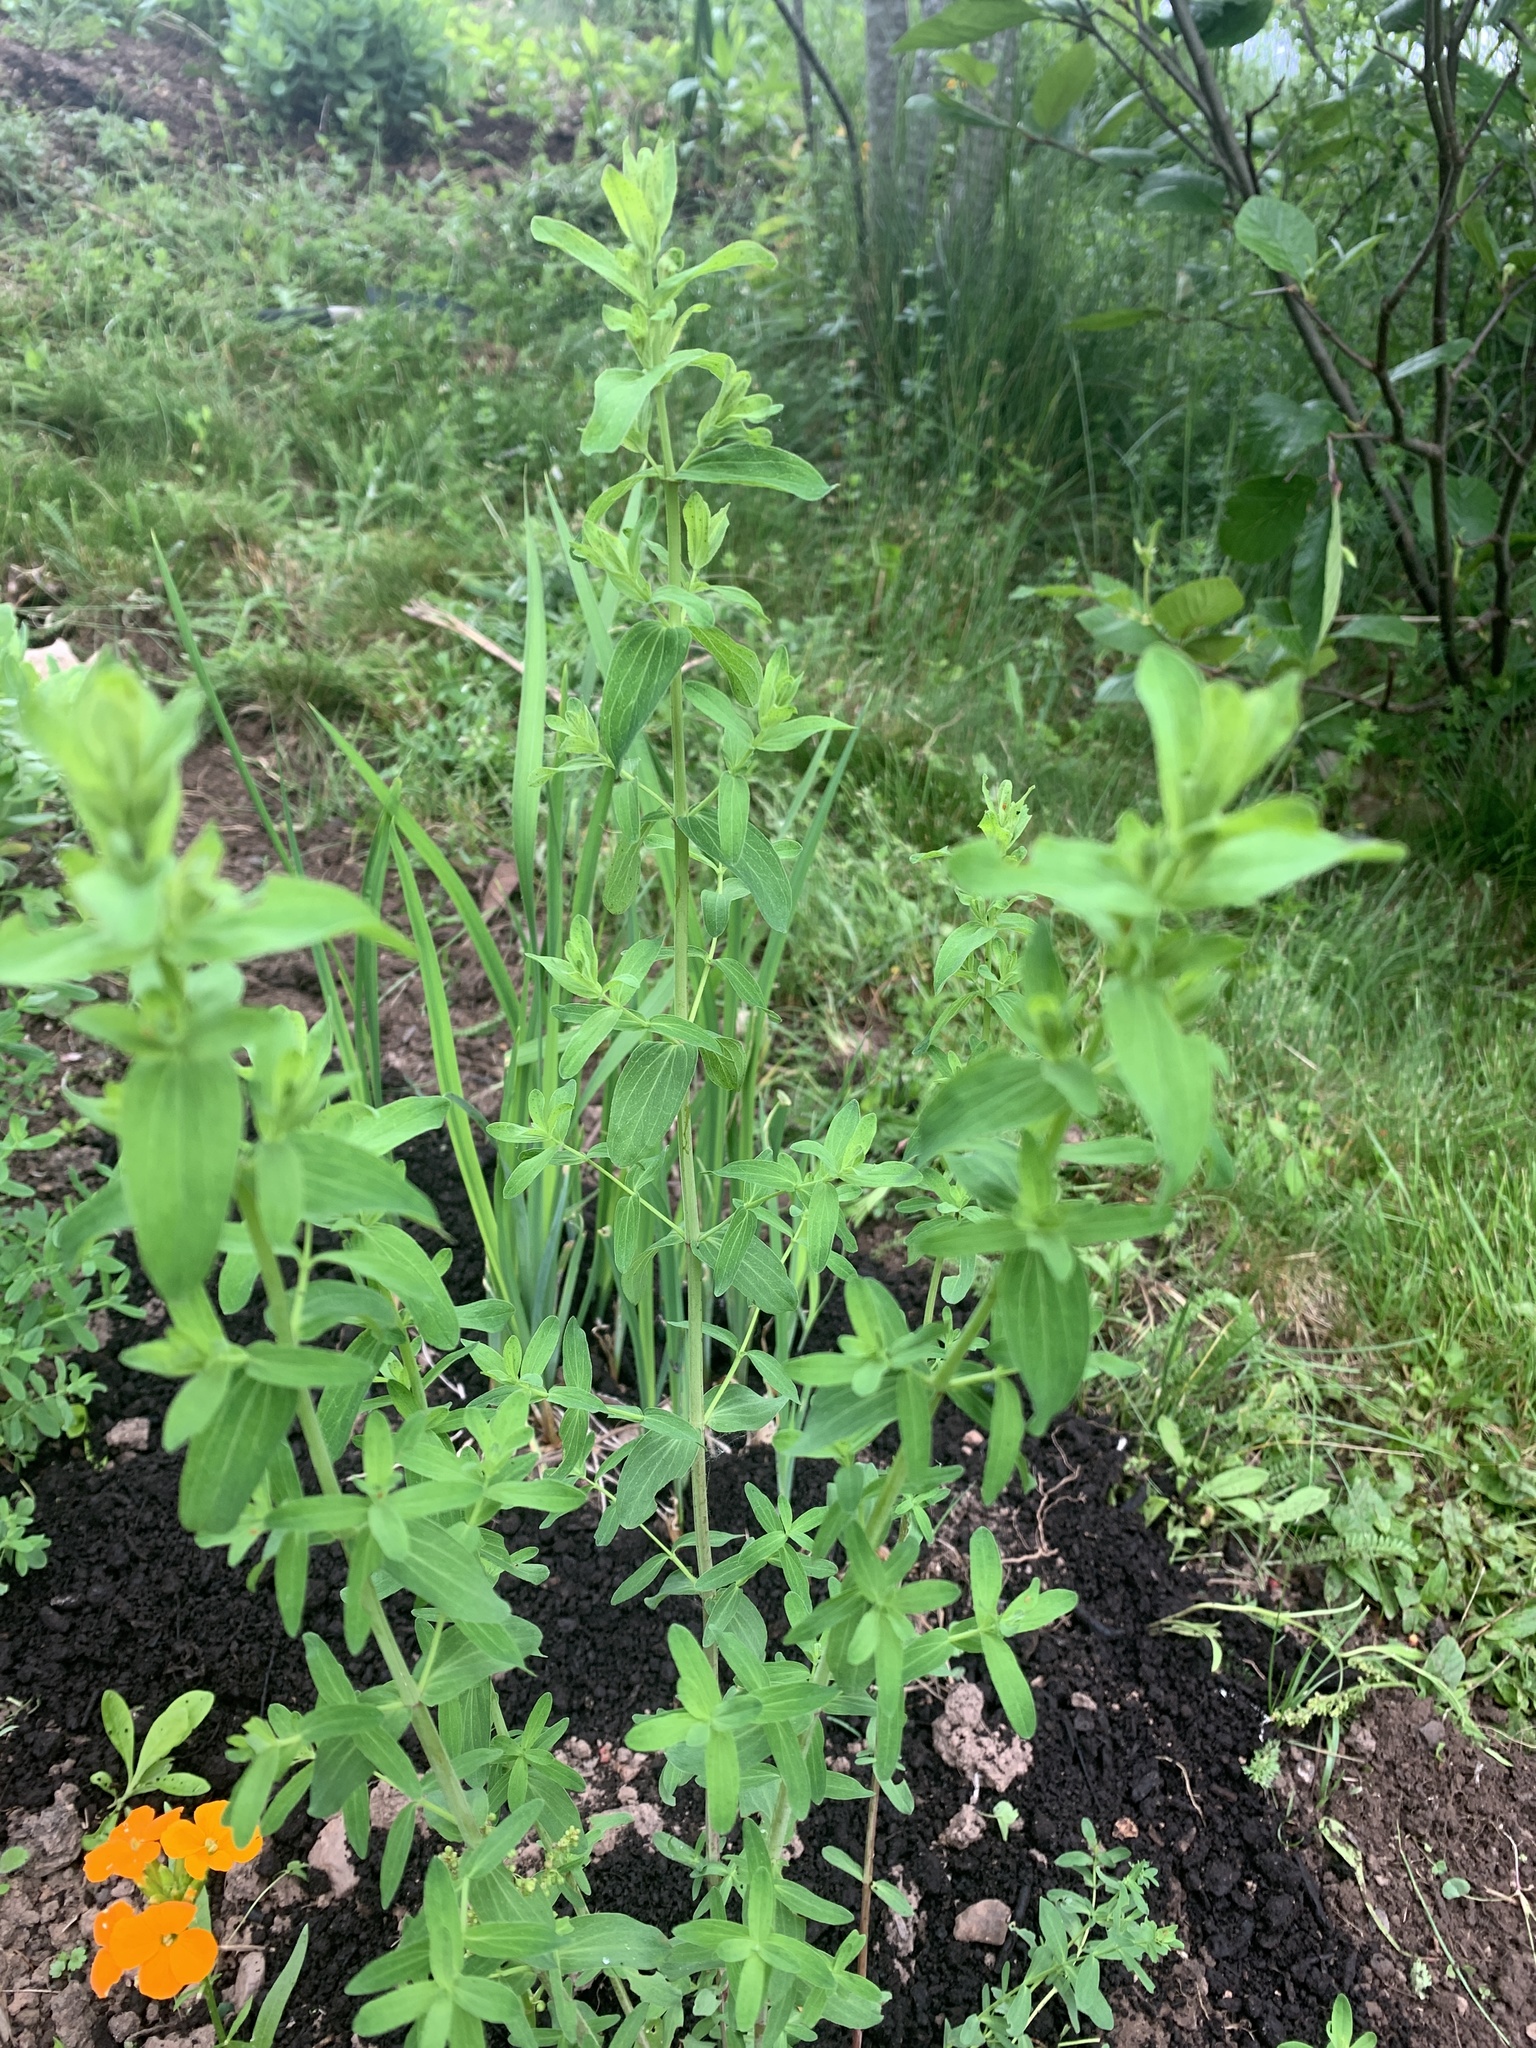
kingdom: Plantae
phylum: Tracheophyta
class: Magnoliopsida
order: Malpighiales
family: Hypericaceae
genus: Hypericum
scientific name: Hypericum perforatum
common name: Common st. johnswort
